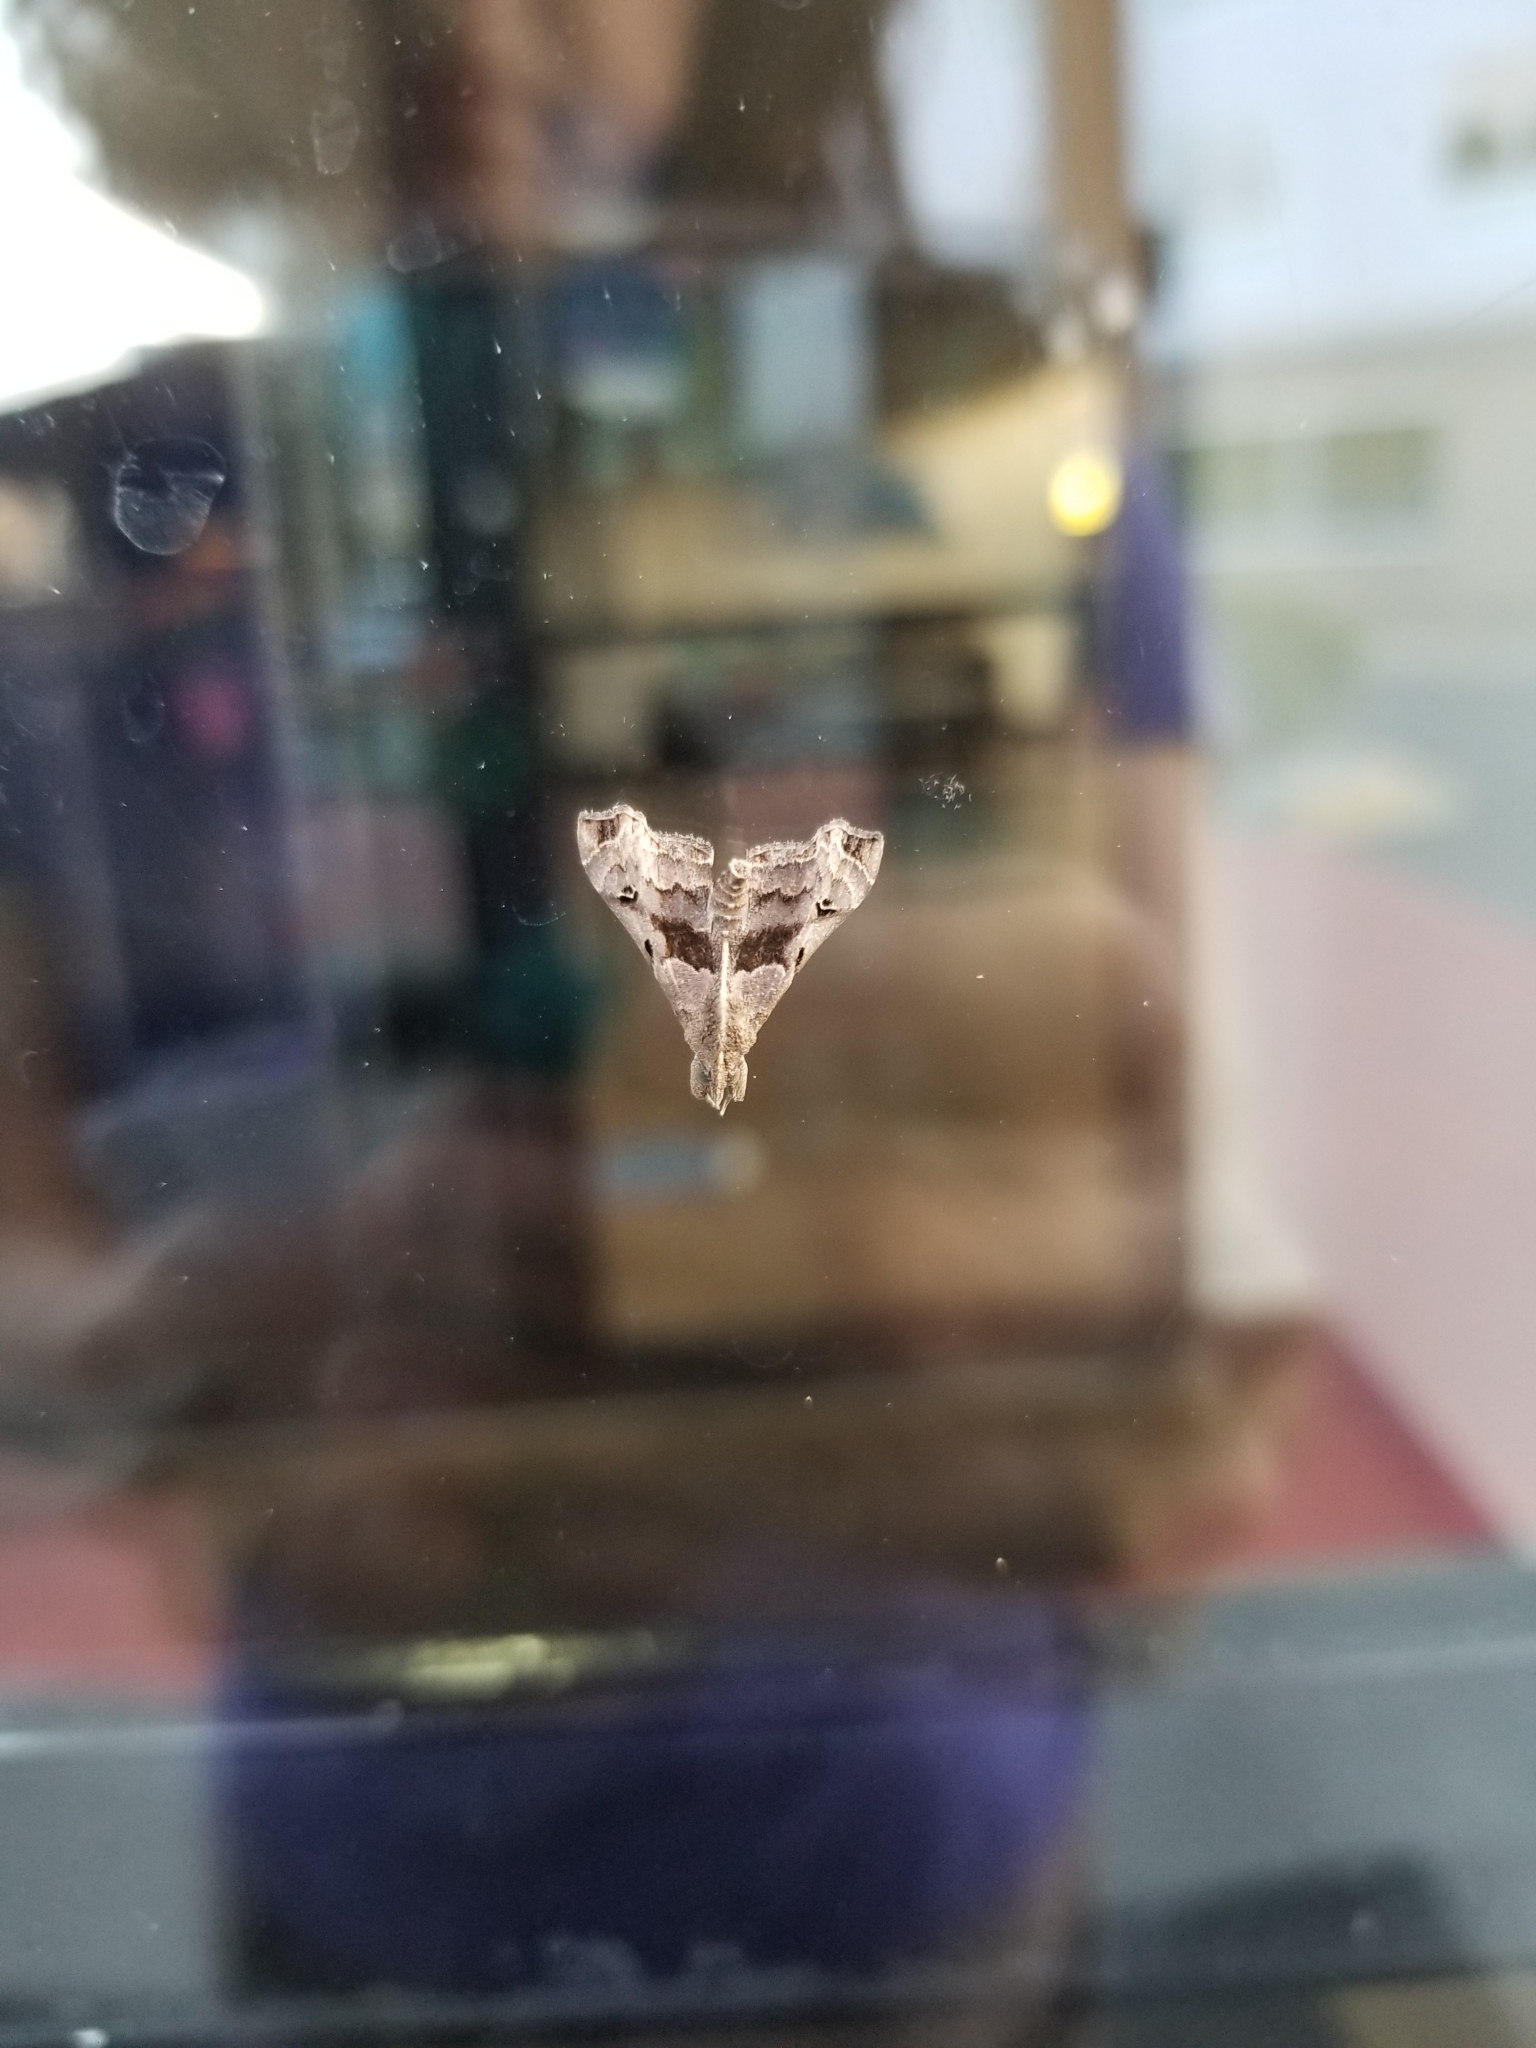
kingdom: Animalia
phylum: Arthropoda
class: Insecta
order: Lepidoptera
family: Erebidae
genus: Palthis
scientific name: Palthis asopialis
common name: Faint-spotted palthis moth
